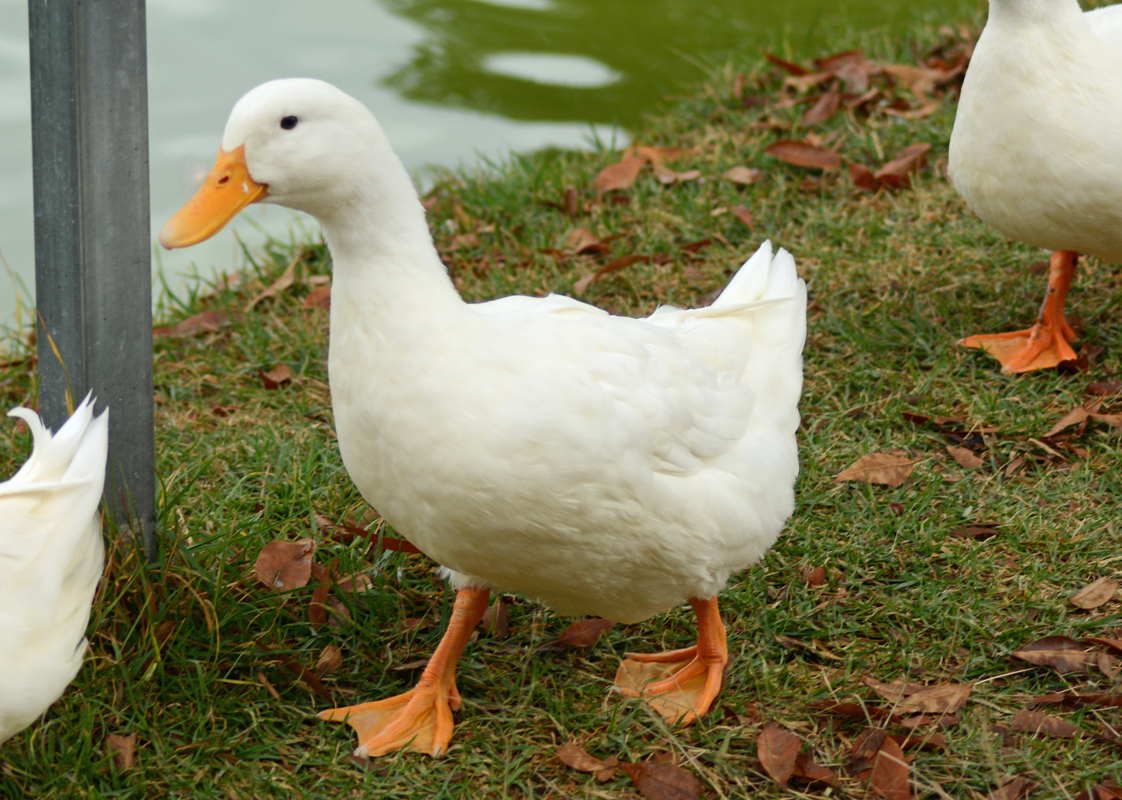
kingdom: Animalia
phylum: Chordata
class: Aves
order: Anseriformes
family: Anatidae
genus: Anas
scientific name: Anas platyrhynchos
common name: Mallard
